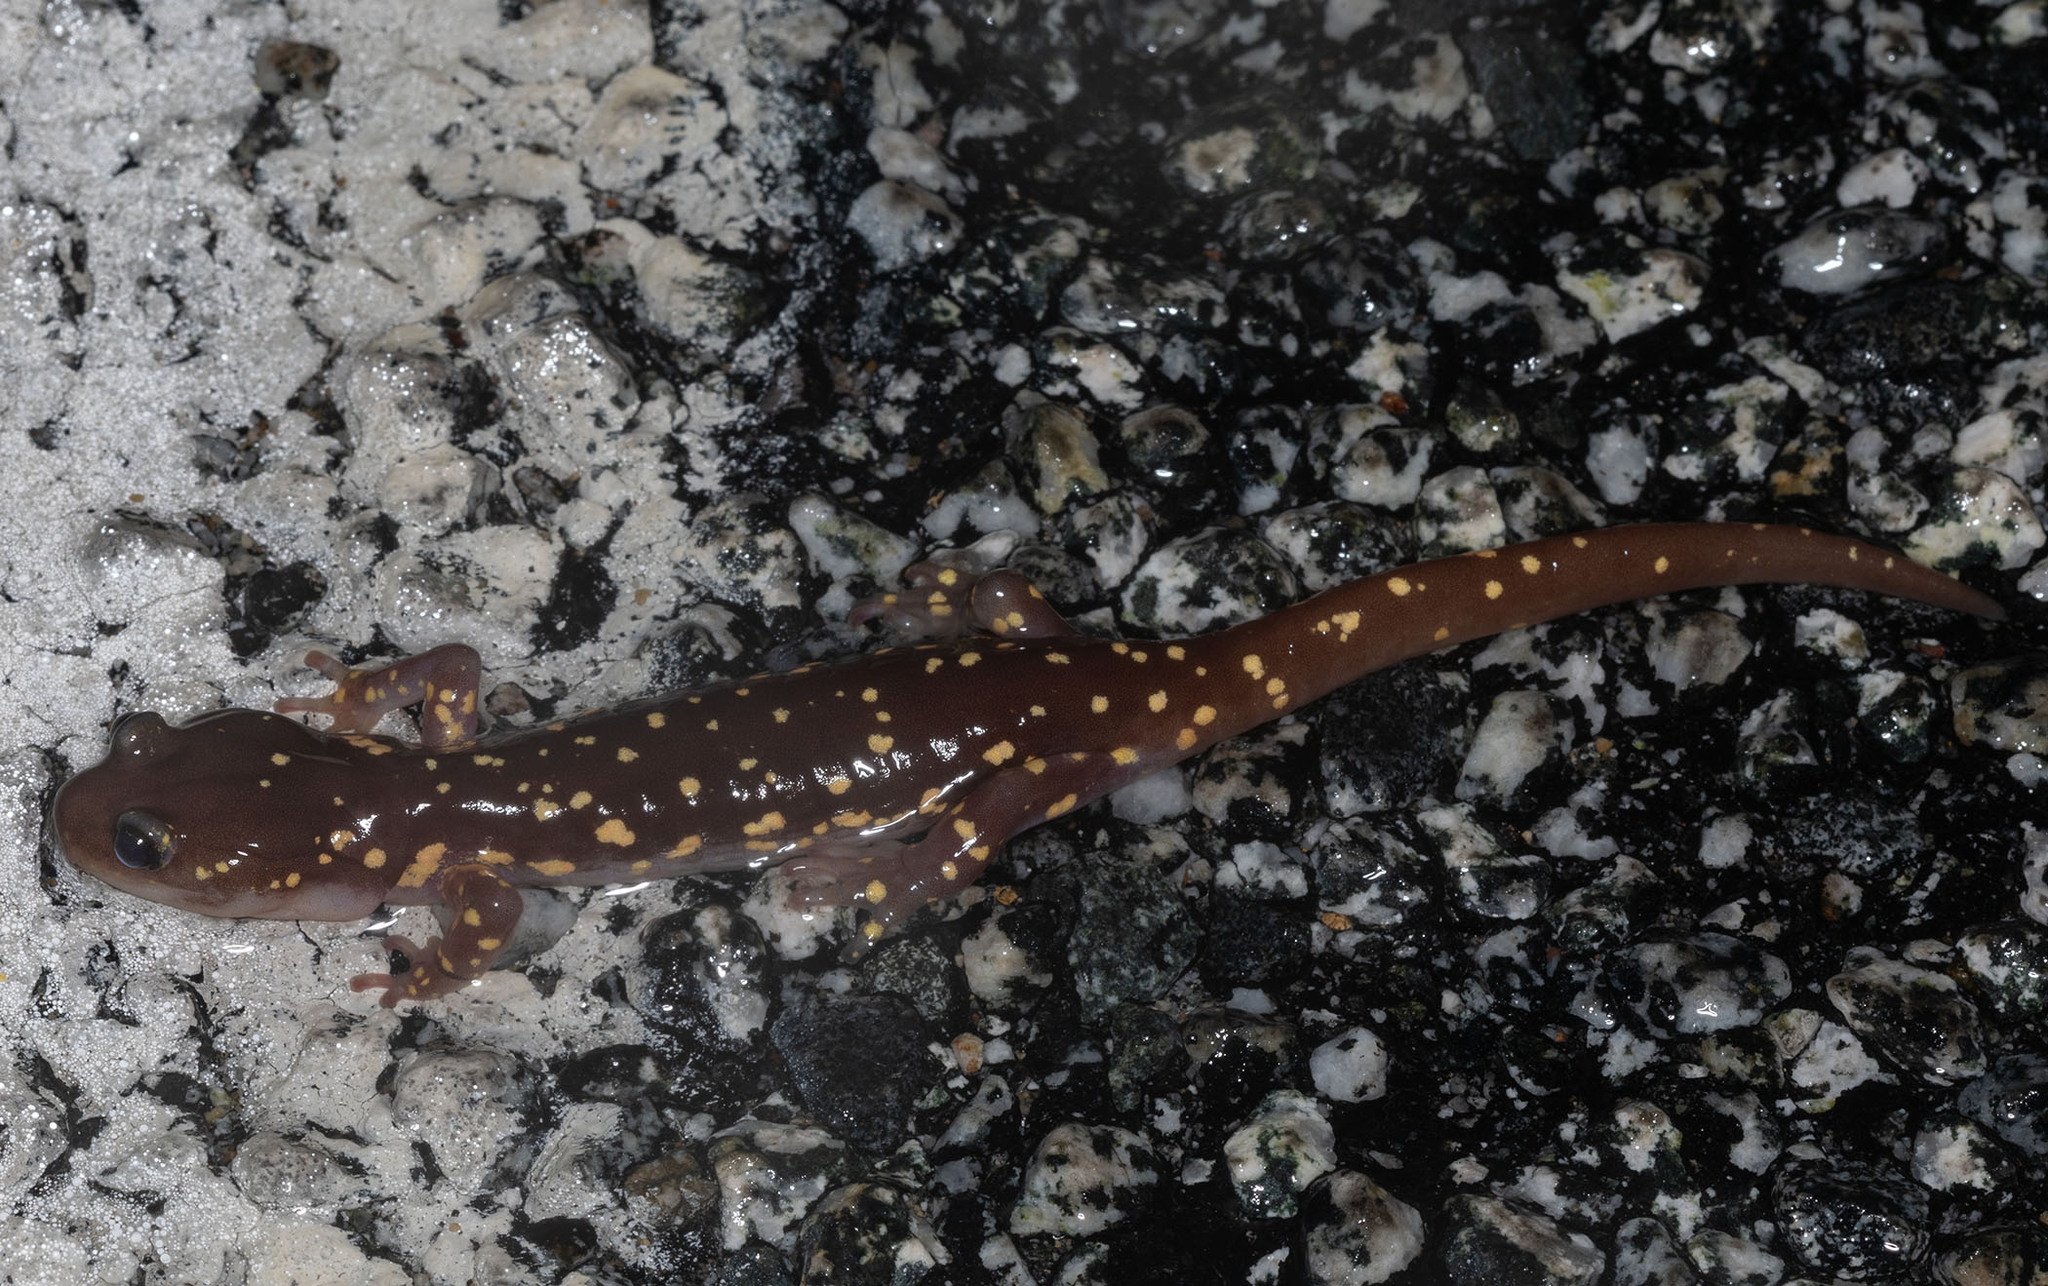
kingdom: Animalia
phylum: Chordata
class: Amphibia
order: Caudata
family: Plethodontidae
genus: Aneides
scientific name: Aneides lugubris
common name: Arboreal salamander
